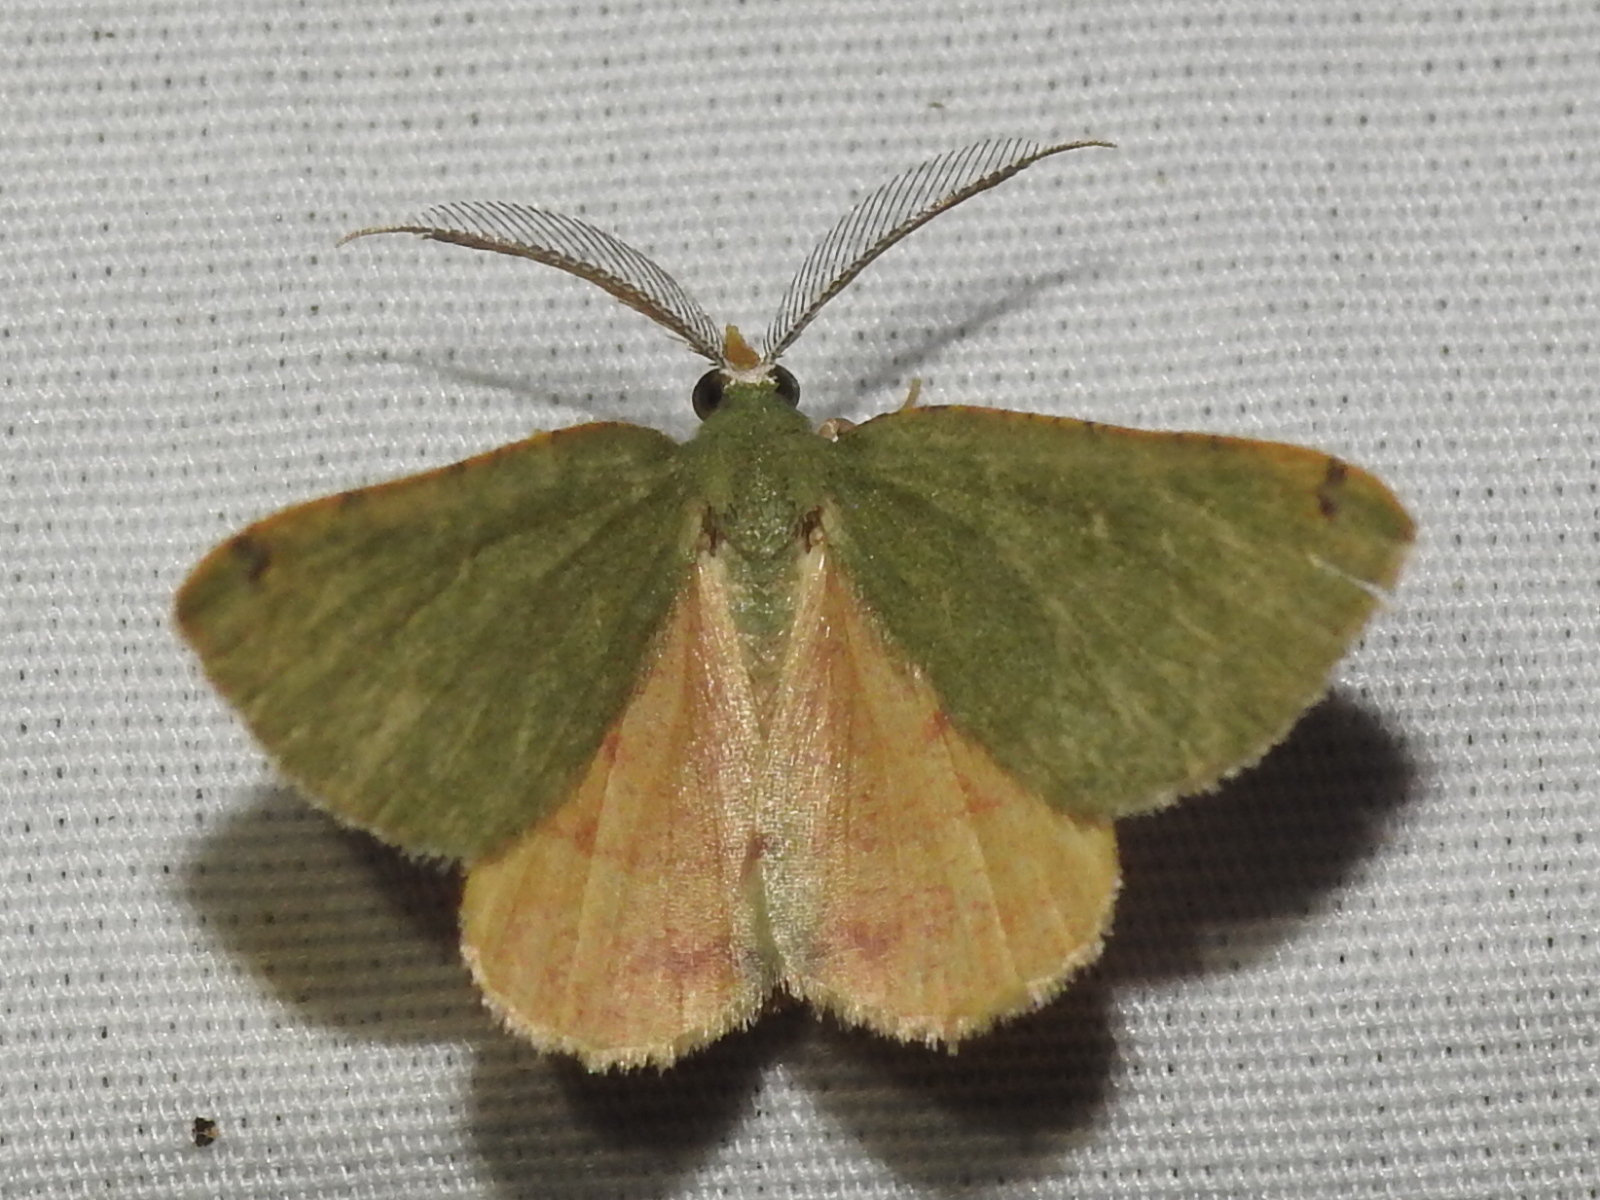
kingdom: Animalia
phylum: Arthropoda
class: Insecta
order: Lepidoptera
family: Geometridae
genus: Chloraspilates
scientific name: Chloraspilates bicoloraria
